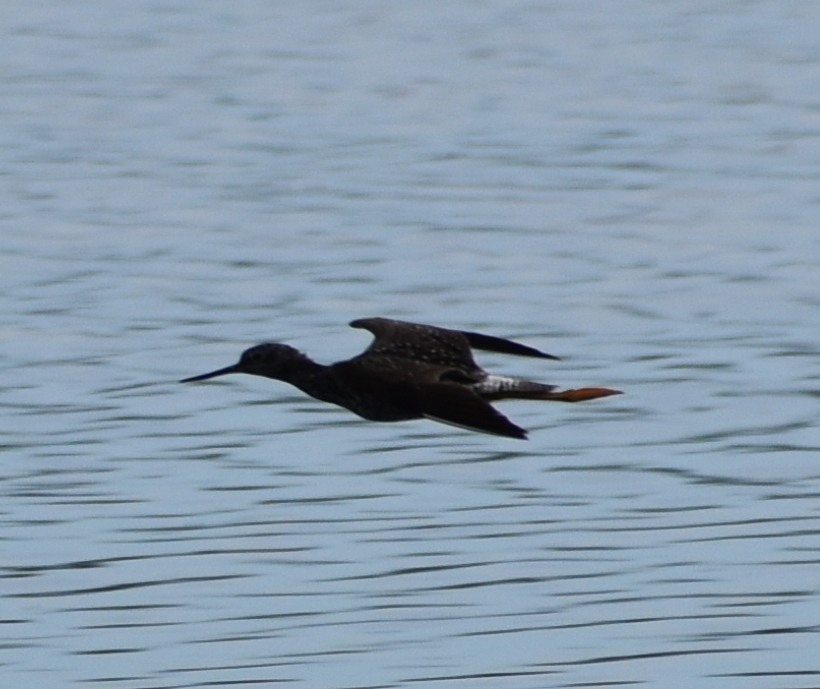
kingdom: Animalia
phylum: Chordata
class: Aves
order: Charadriiformes
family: Scolopacidae
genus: Tringa
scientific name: Tringa melanoleuca
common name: Greater yellowlegs
